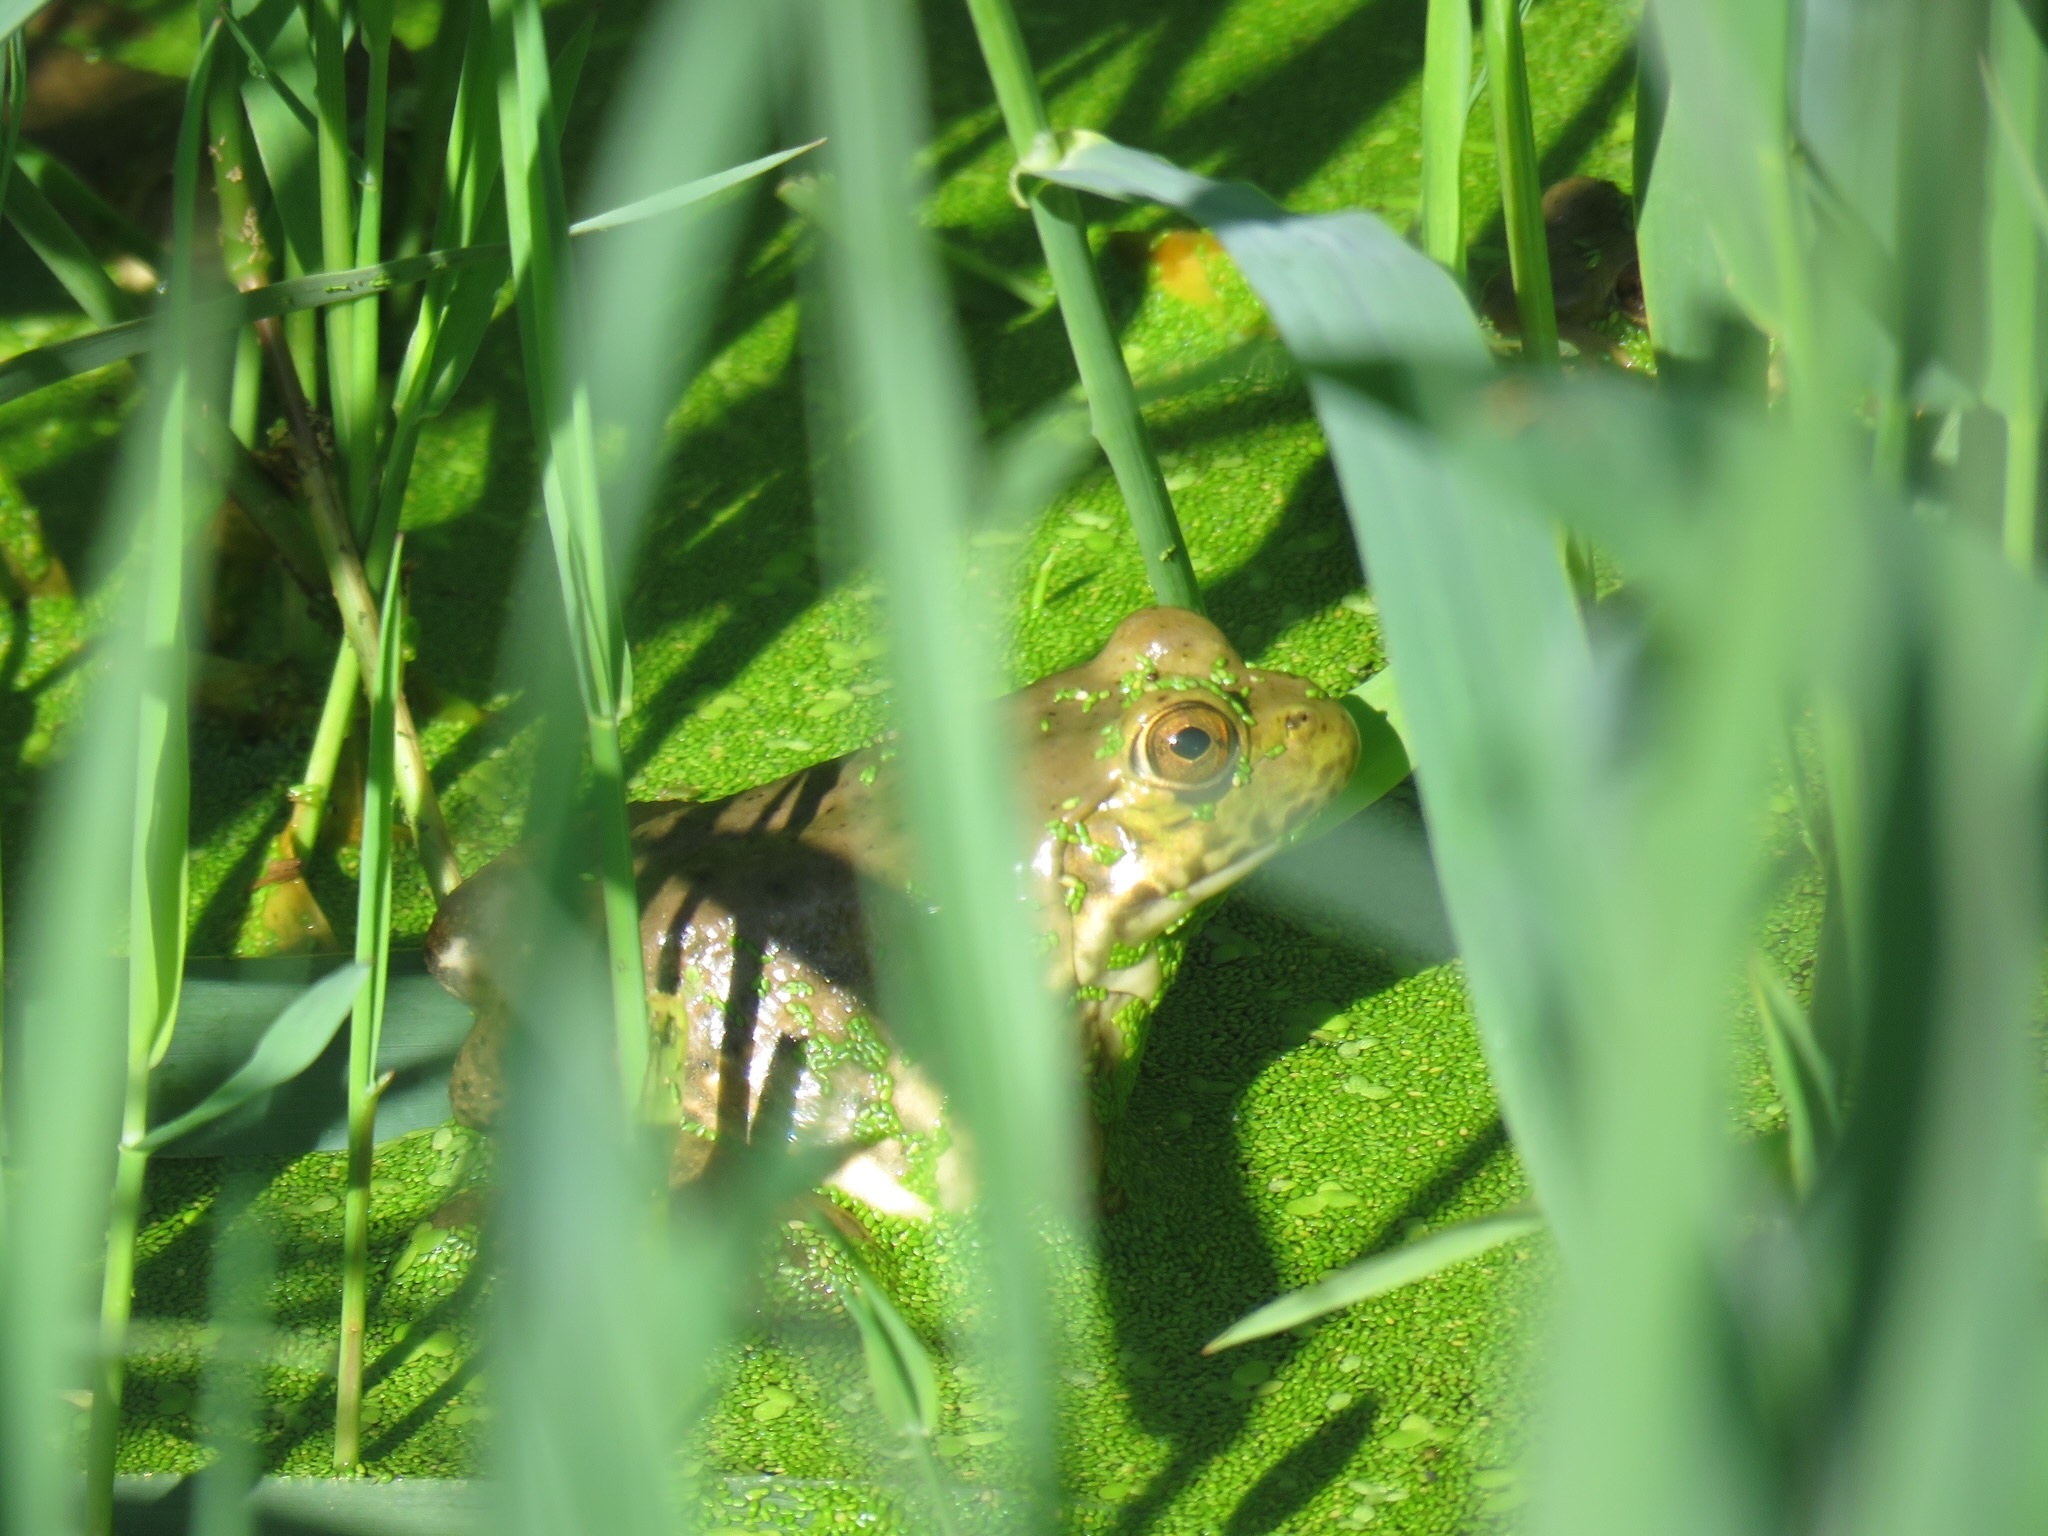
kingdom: Animalia
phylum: Chordata
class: Amphibia
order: Anura
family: Ranidae
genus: Lithobates
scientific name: Lithobates catesbeianus
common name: American bullfrog
